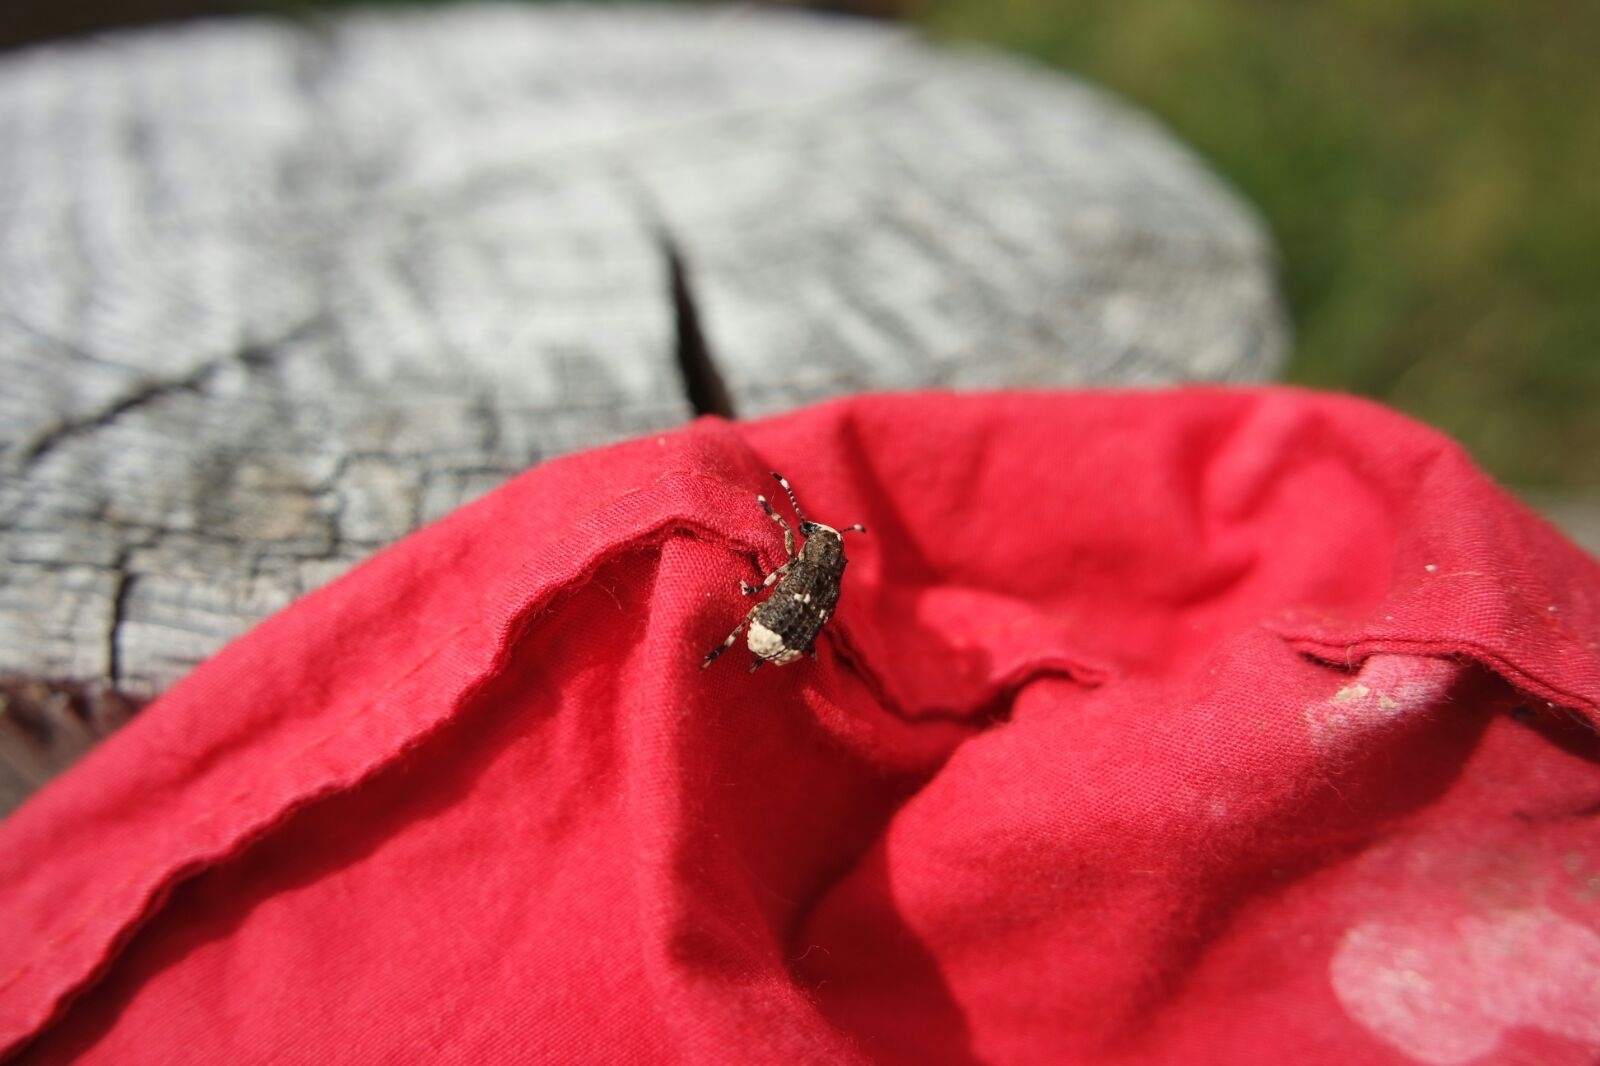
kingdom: Animalia
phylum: Arthropoda
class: Insecta
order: Coleoptera
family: Anthribidae
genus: Platystomos
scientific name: Platystomos albinus
